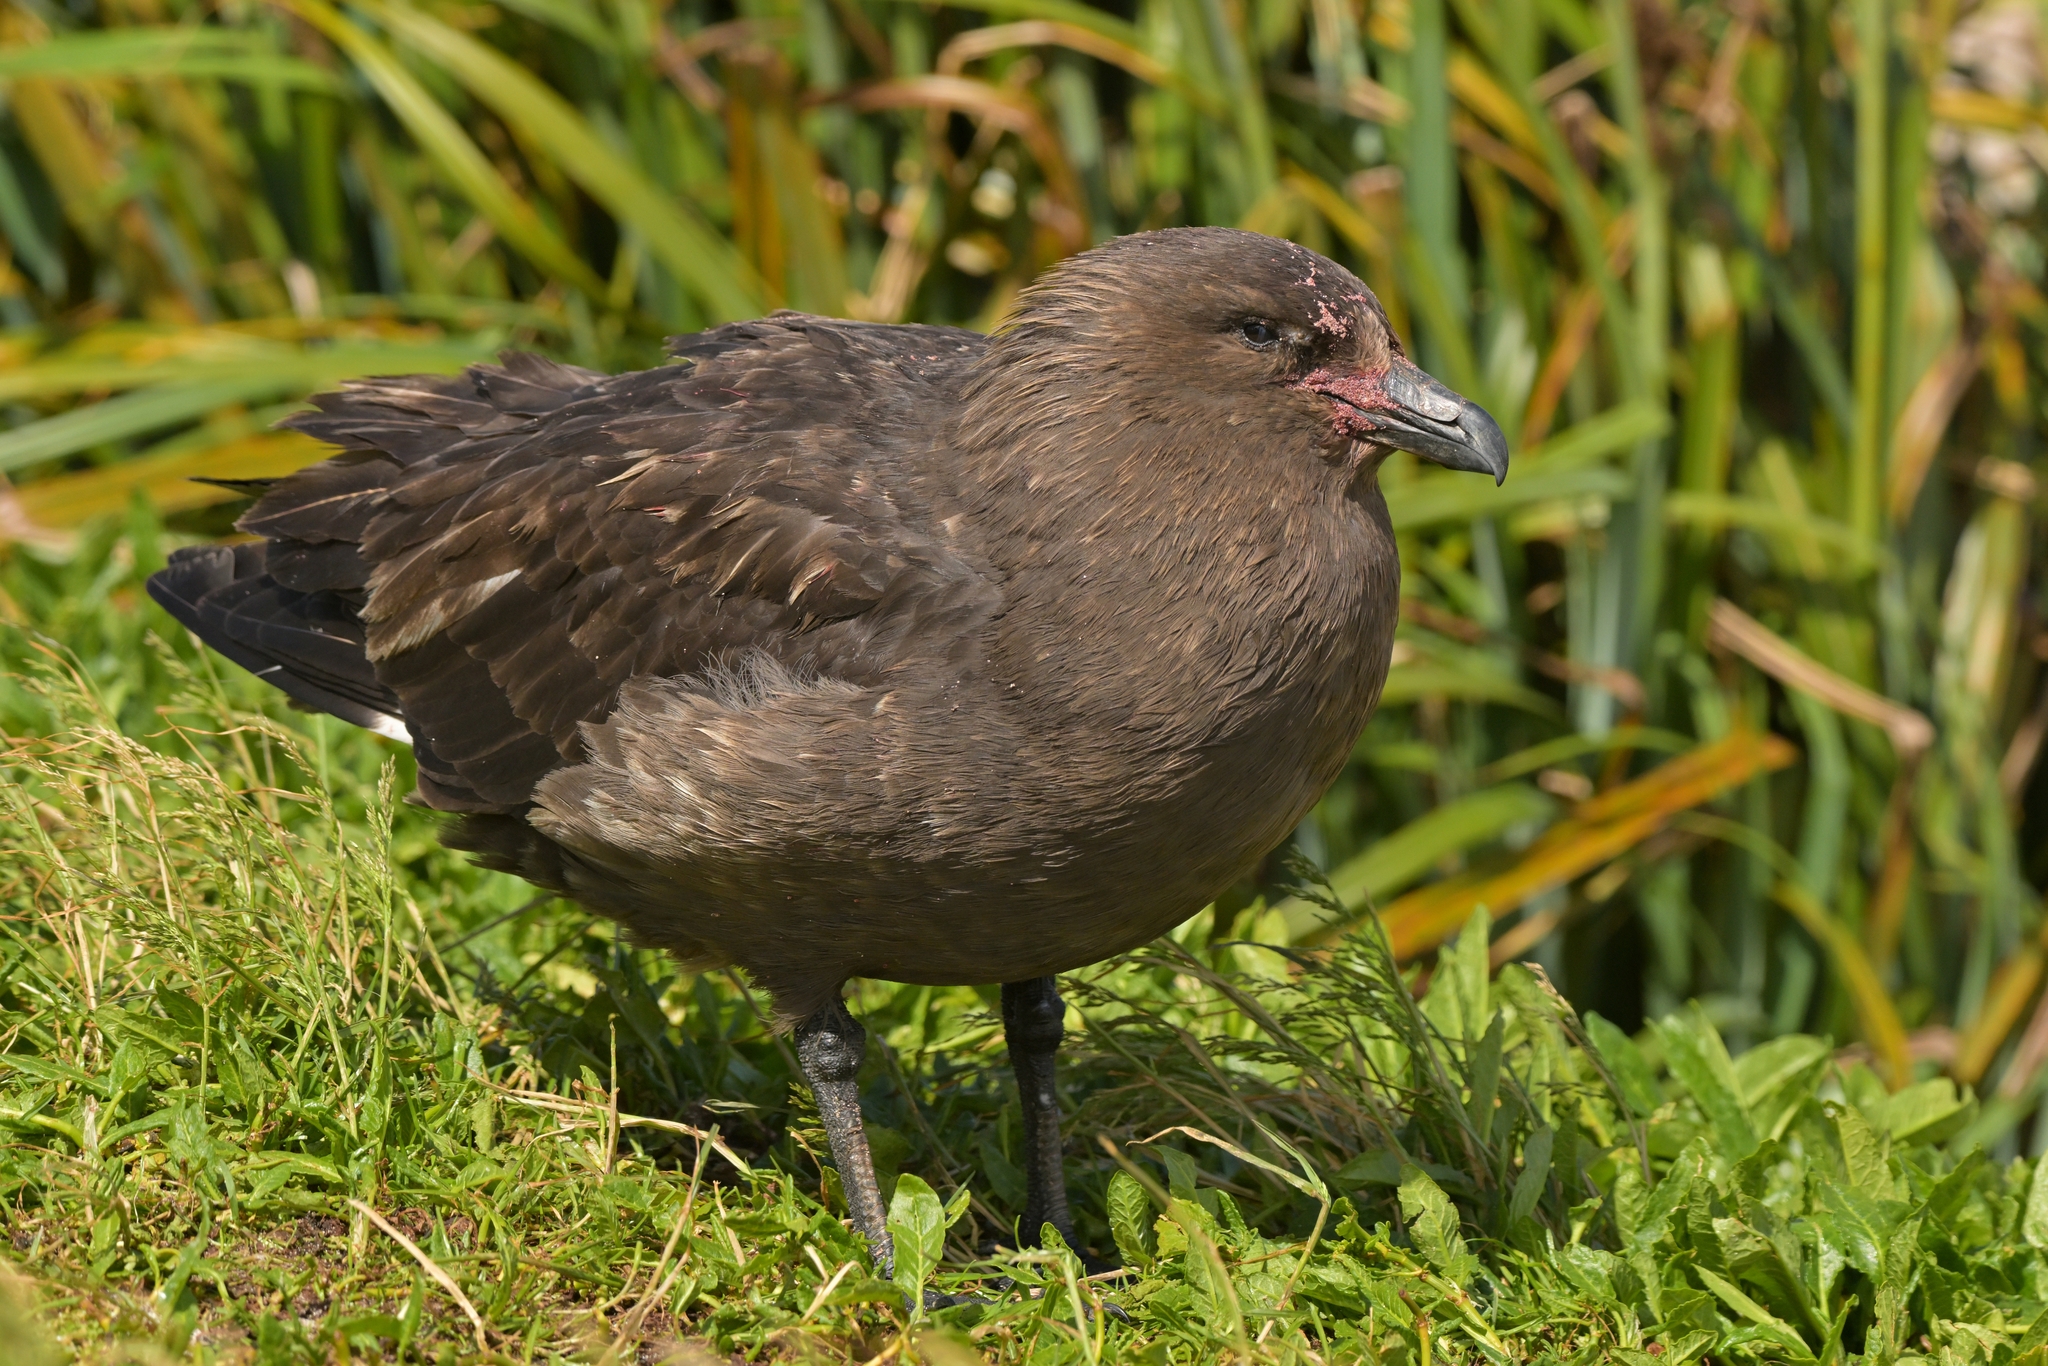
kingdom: Animalia
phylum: Chordata
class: Aves
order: Charadriiformes
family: Stercorariidae
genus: Stercorarius
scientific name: Stercorarius antarcticus
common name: Brown skua
